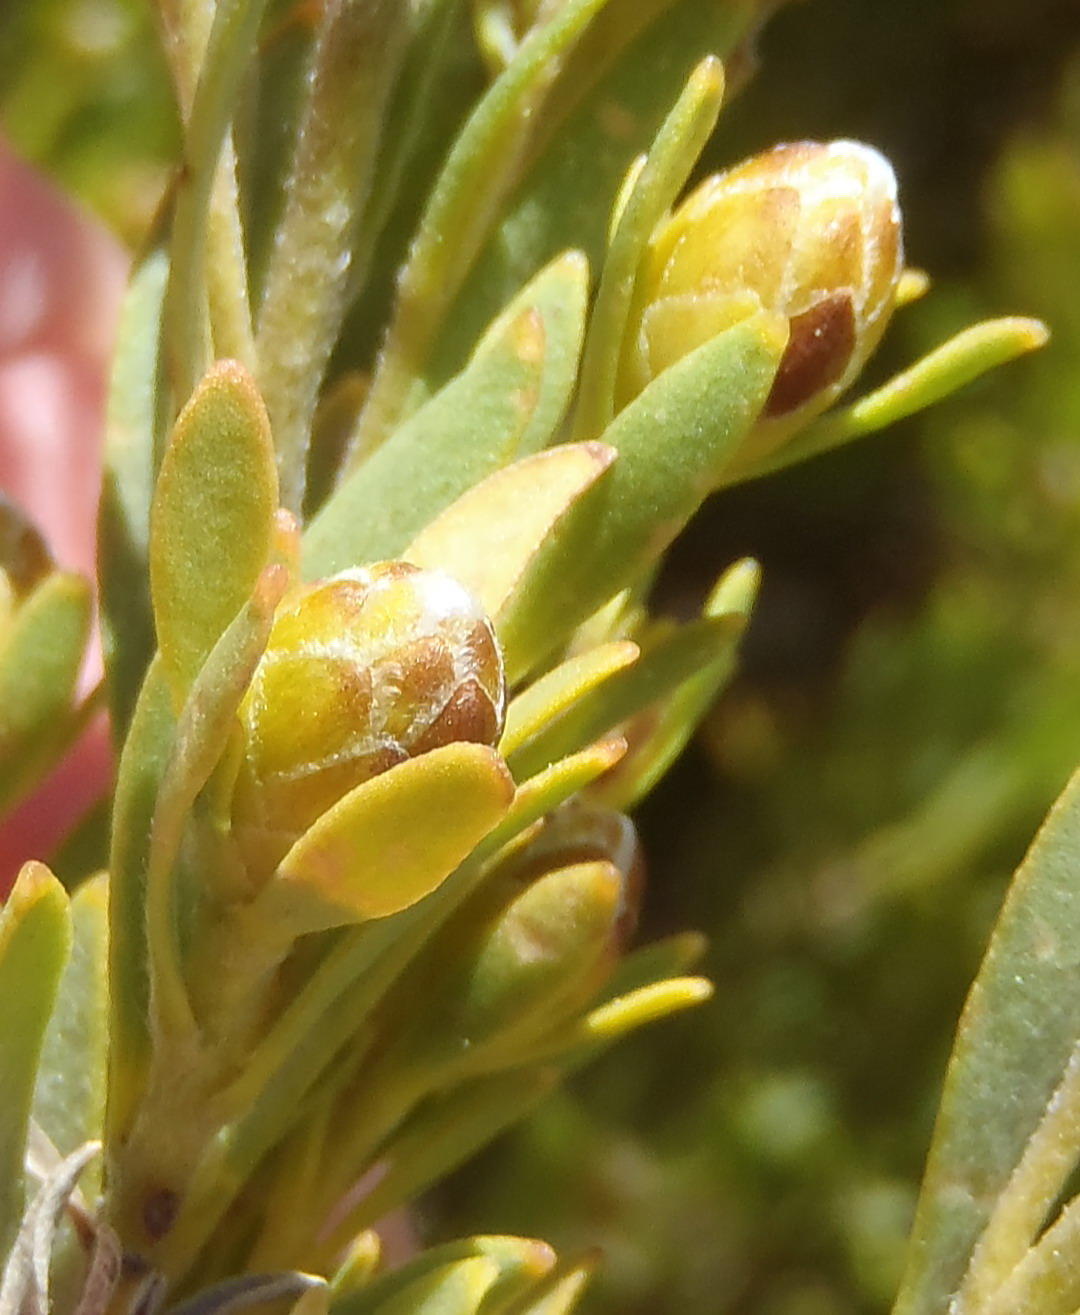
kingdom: Plantae
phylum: Tracheophyta
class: Magnoliopsida
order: Proteales
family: Proteaceae
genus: Leucadendron
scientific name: Leucadendron rubrum
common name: Spinning top
